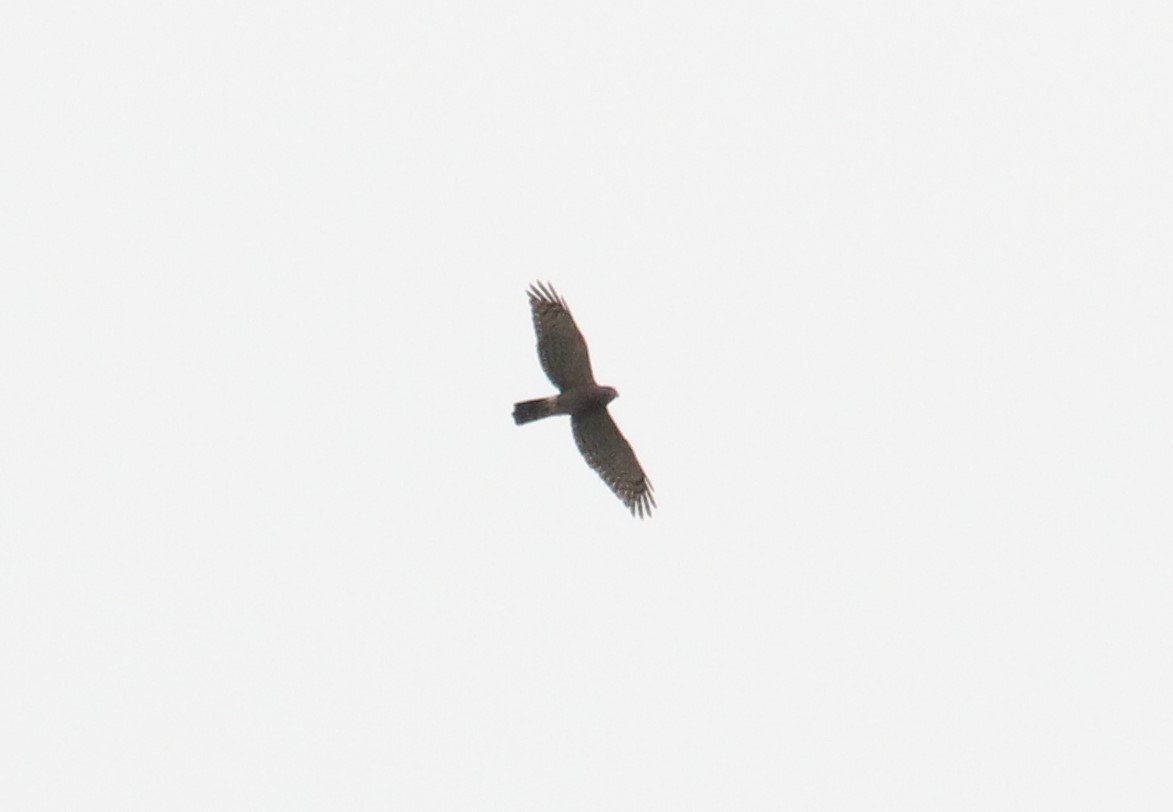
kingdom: Animalia
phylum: Chordata
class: Aves
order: Accipitriformes
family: Accipitridae
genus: Chondrohierax
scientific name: Chondrohierax uncinatus
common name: Hook-billed kite
